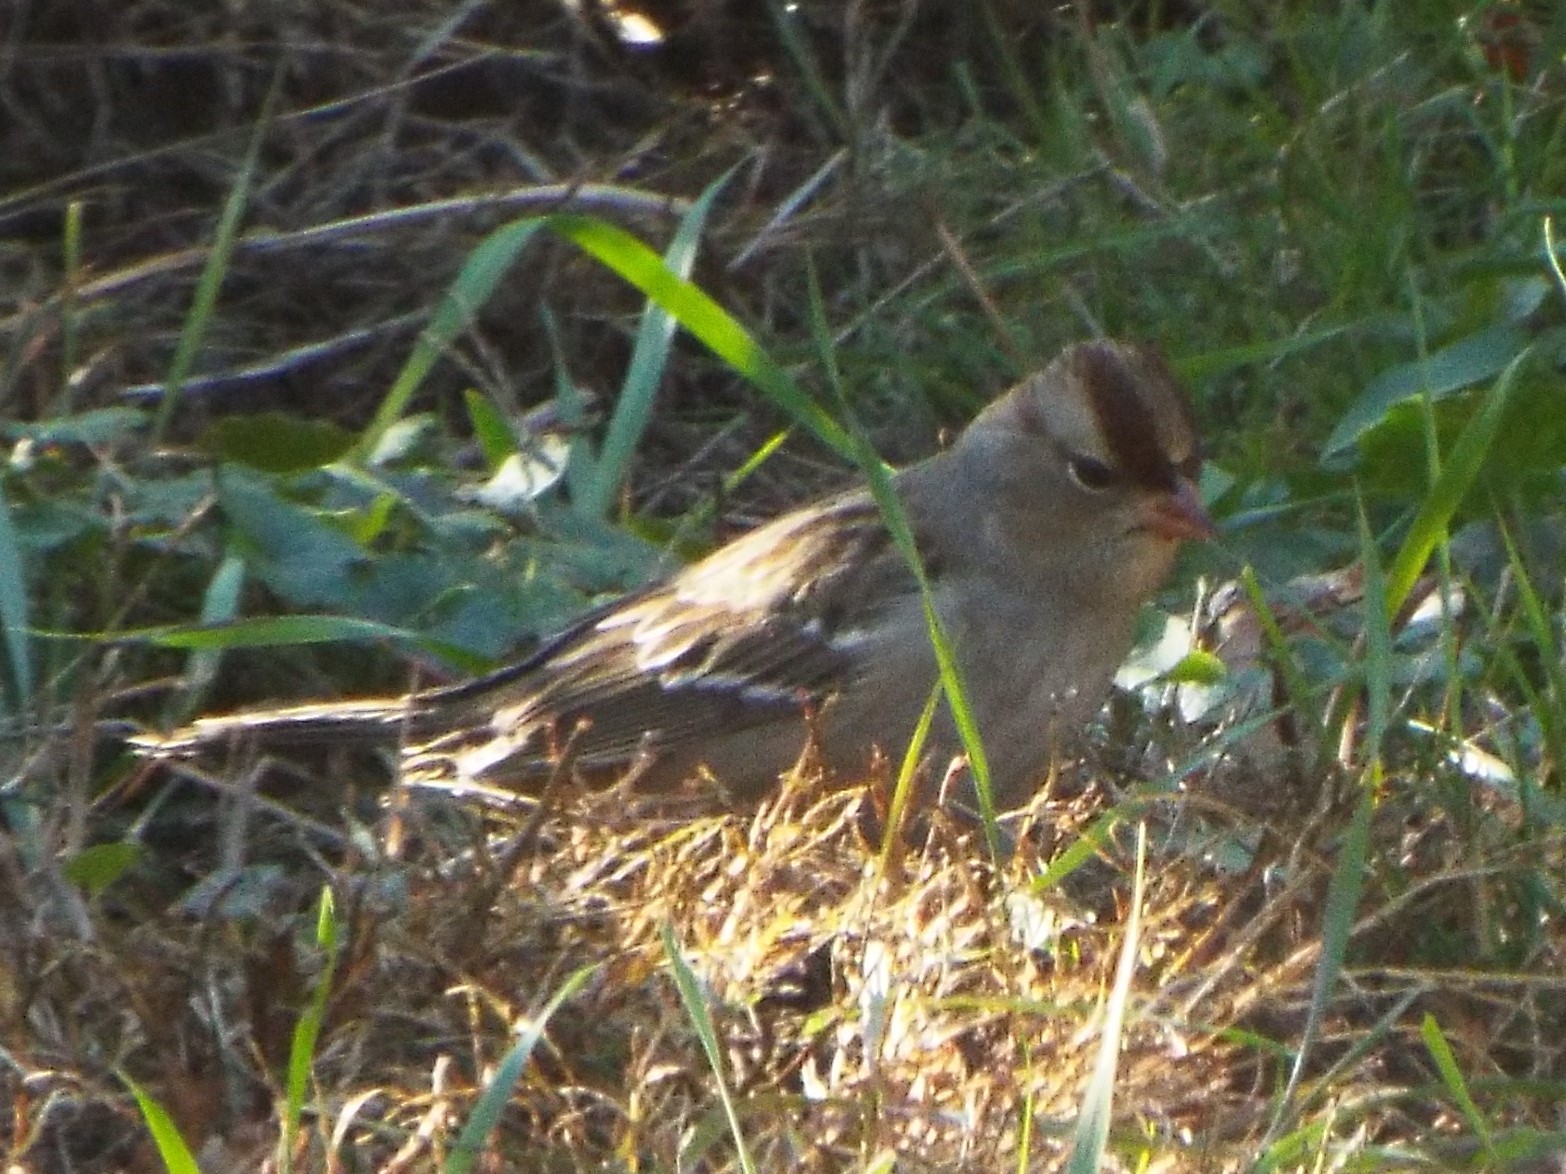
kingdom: Animalia
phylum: Chordata
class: Aves
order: Passeriformes
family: Passerellidae
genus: Zonotrichia
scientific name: Zonotrichia leucophrys
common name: White-crowned sparrow
